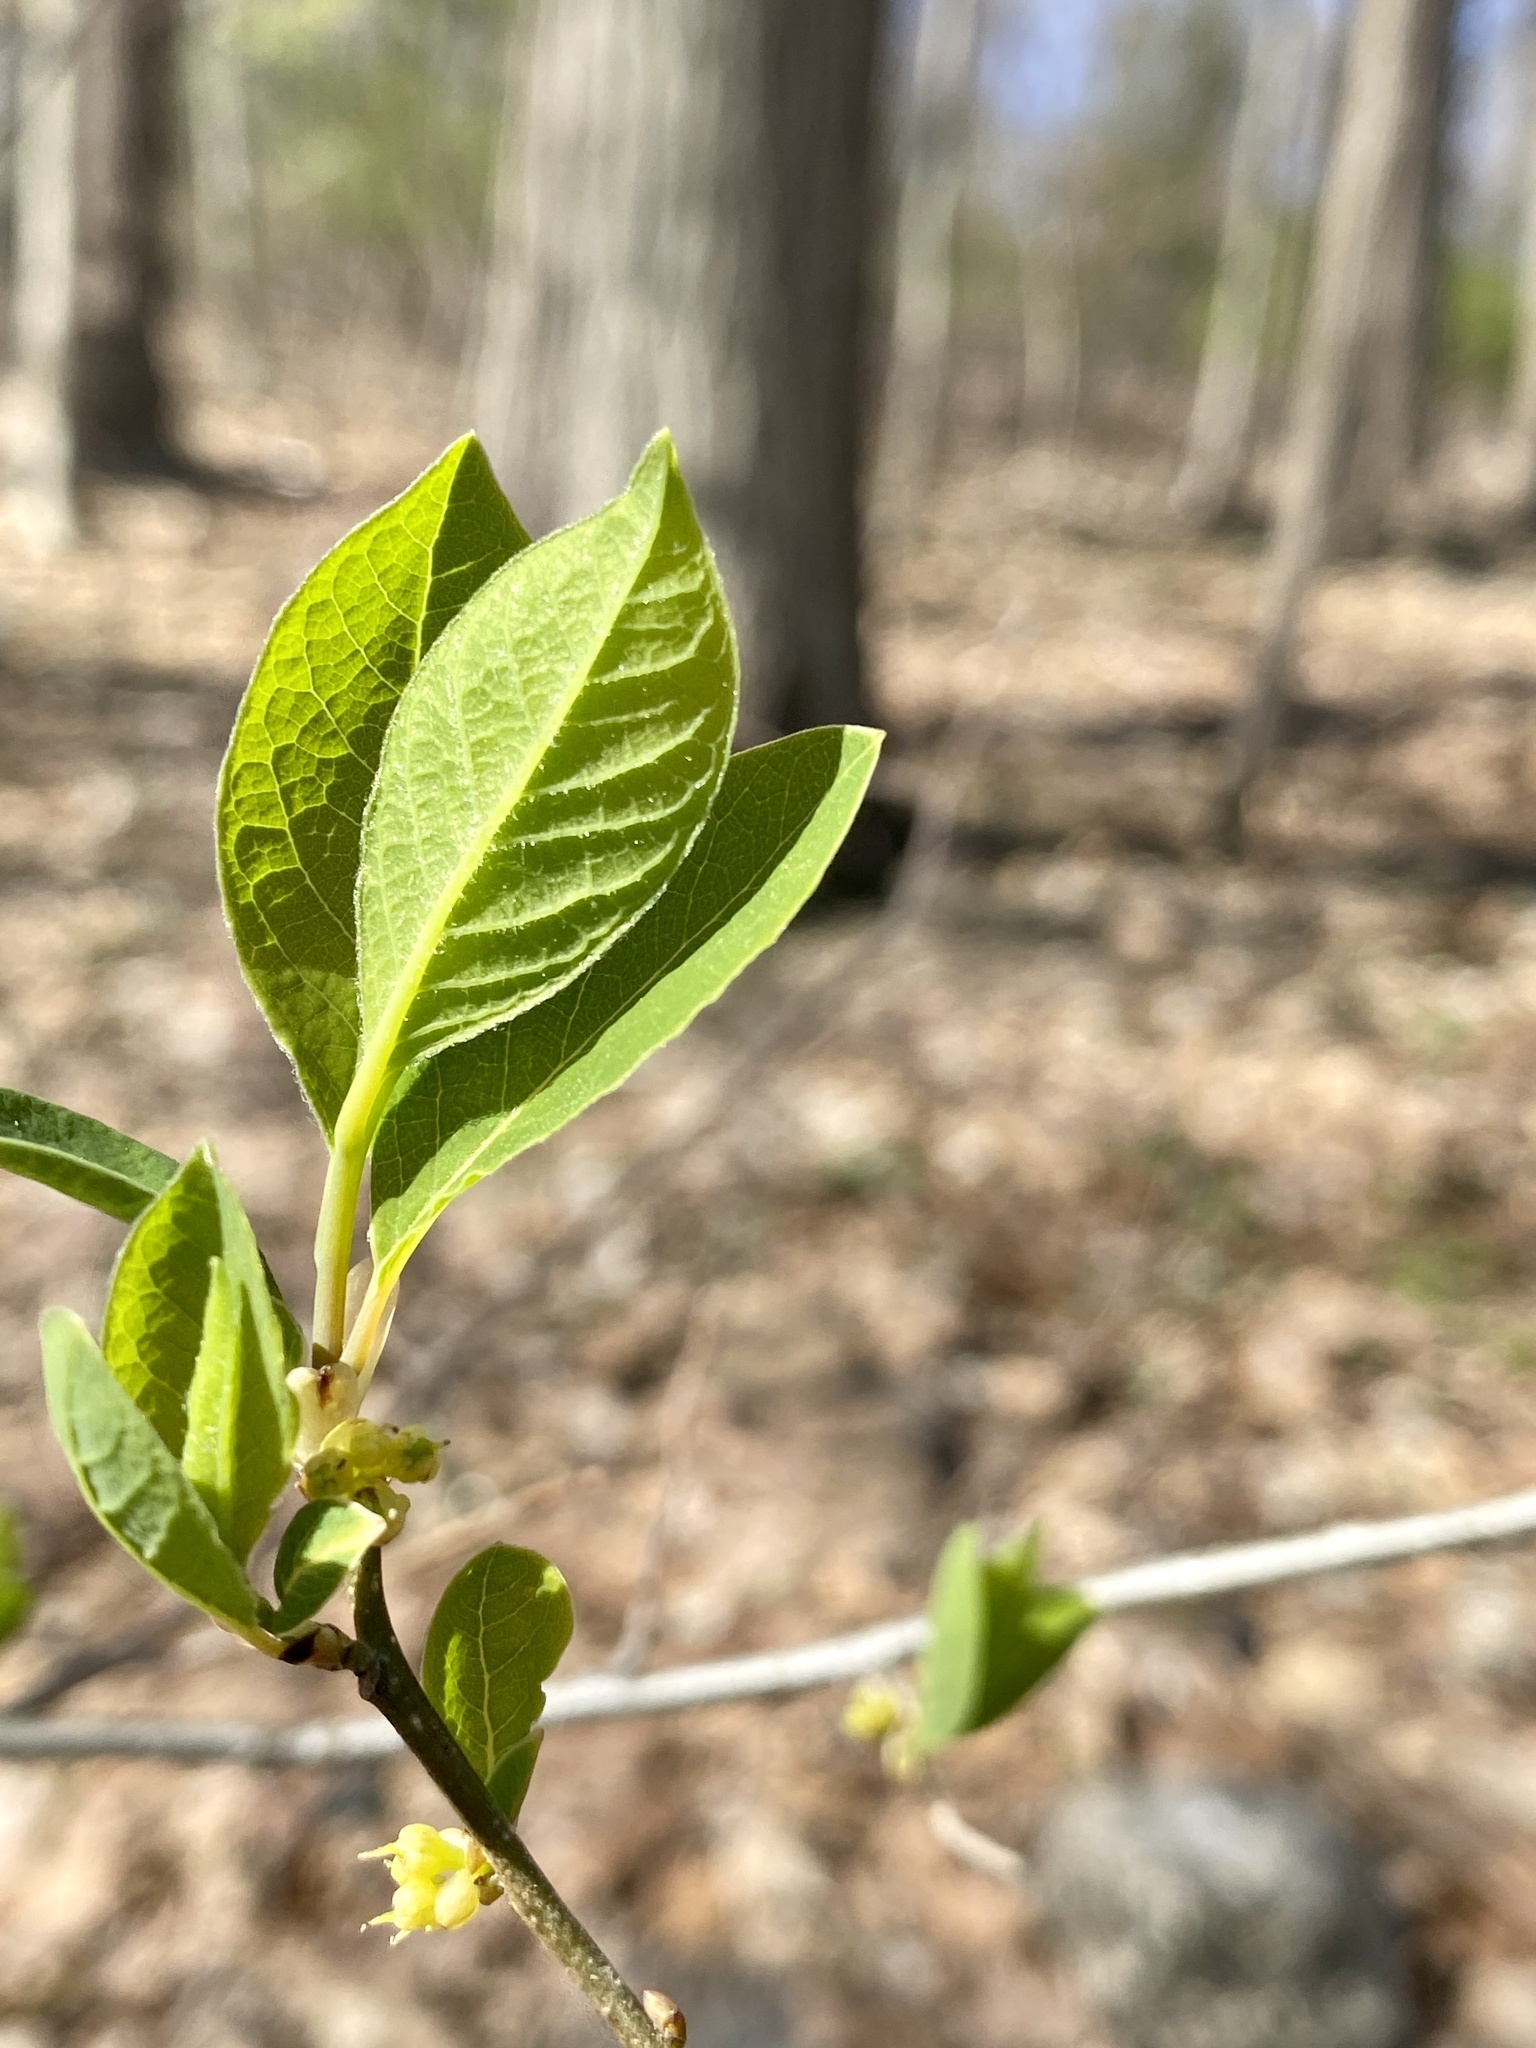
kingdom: Plantae
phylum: Tracheophyta
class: Magnoliopsida
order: Laurales
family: Lauraceae
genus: Lindera
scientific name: Lindera benzoin
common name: Spicebush
